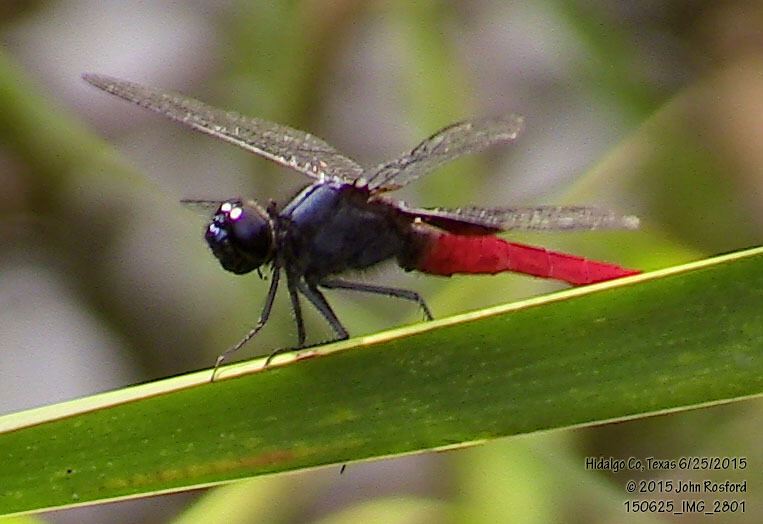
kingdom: Animalia
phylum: Arthropoda
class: Insecta
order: Odonata
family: Libellulidae
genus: Planiplax
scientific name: Planiplax sanguiniventris
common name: Mexican scarlet-tail
